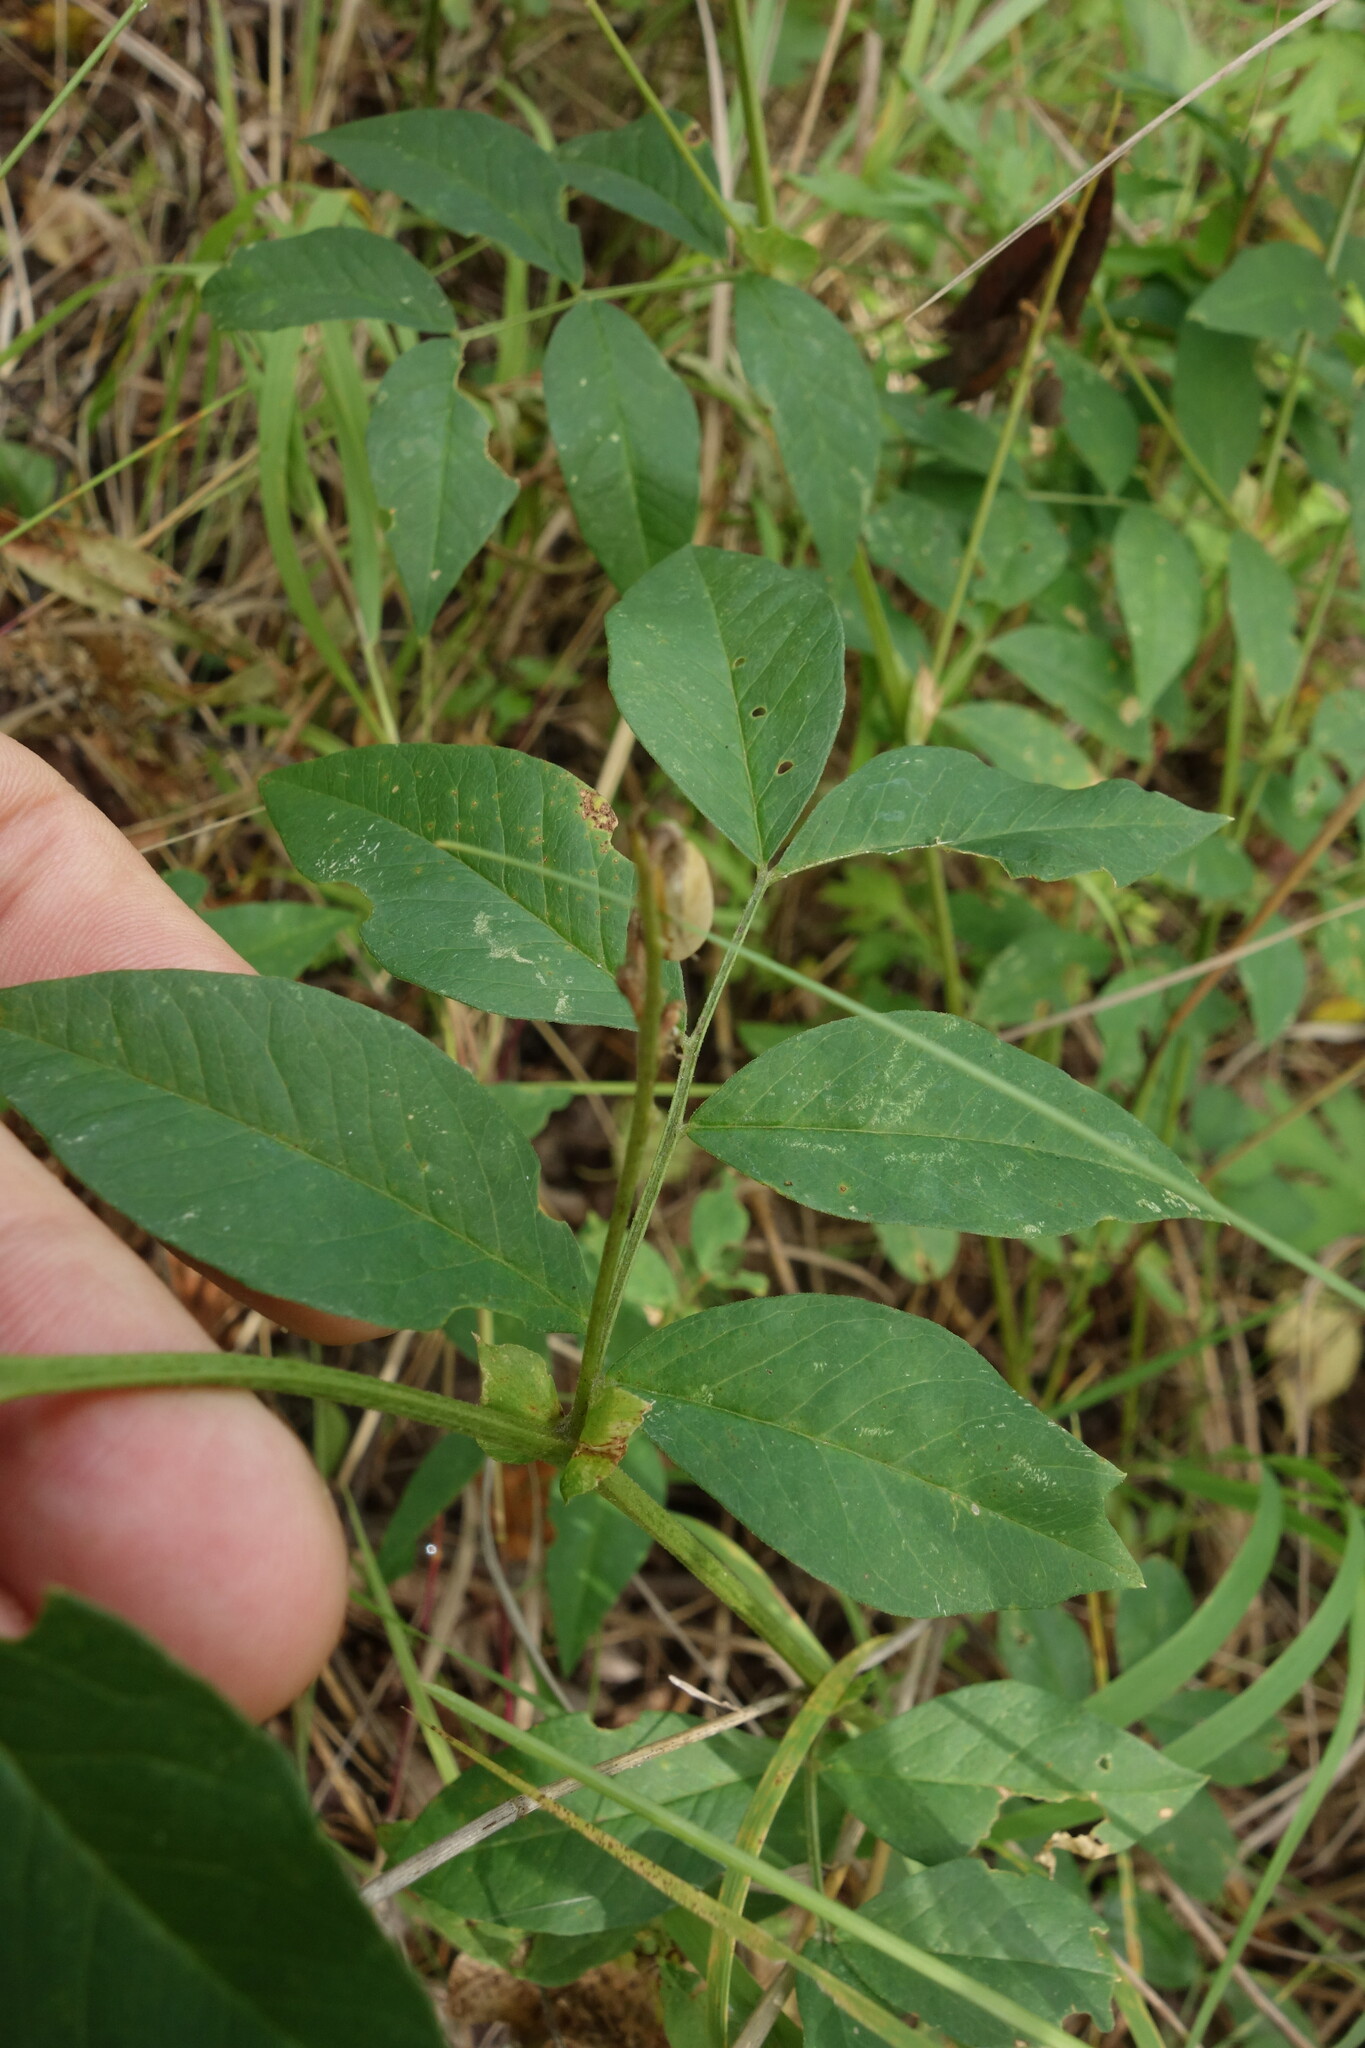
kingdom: Plantae
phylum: Tracheophyta
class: Magnoliopsida
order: Fabales
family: Fabaceae
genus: Vicia
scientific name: Vicia ramuliflora
